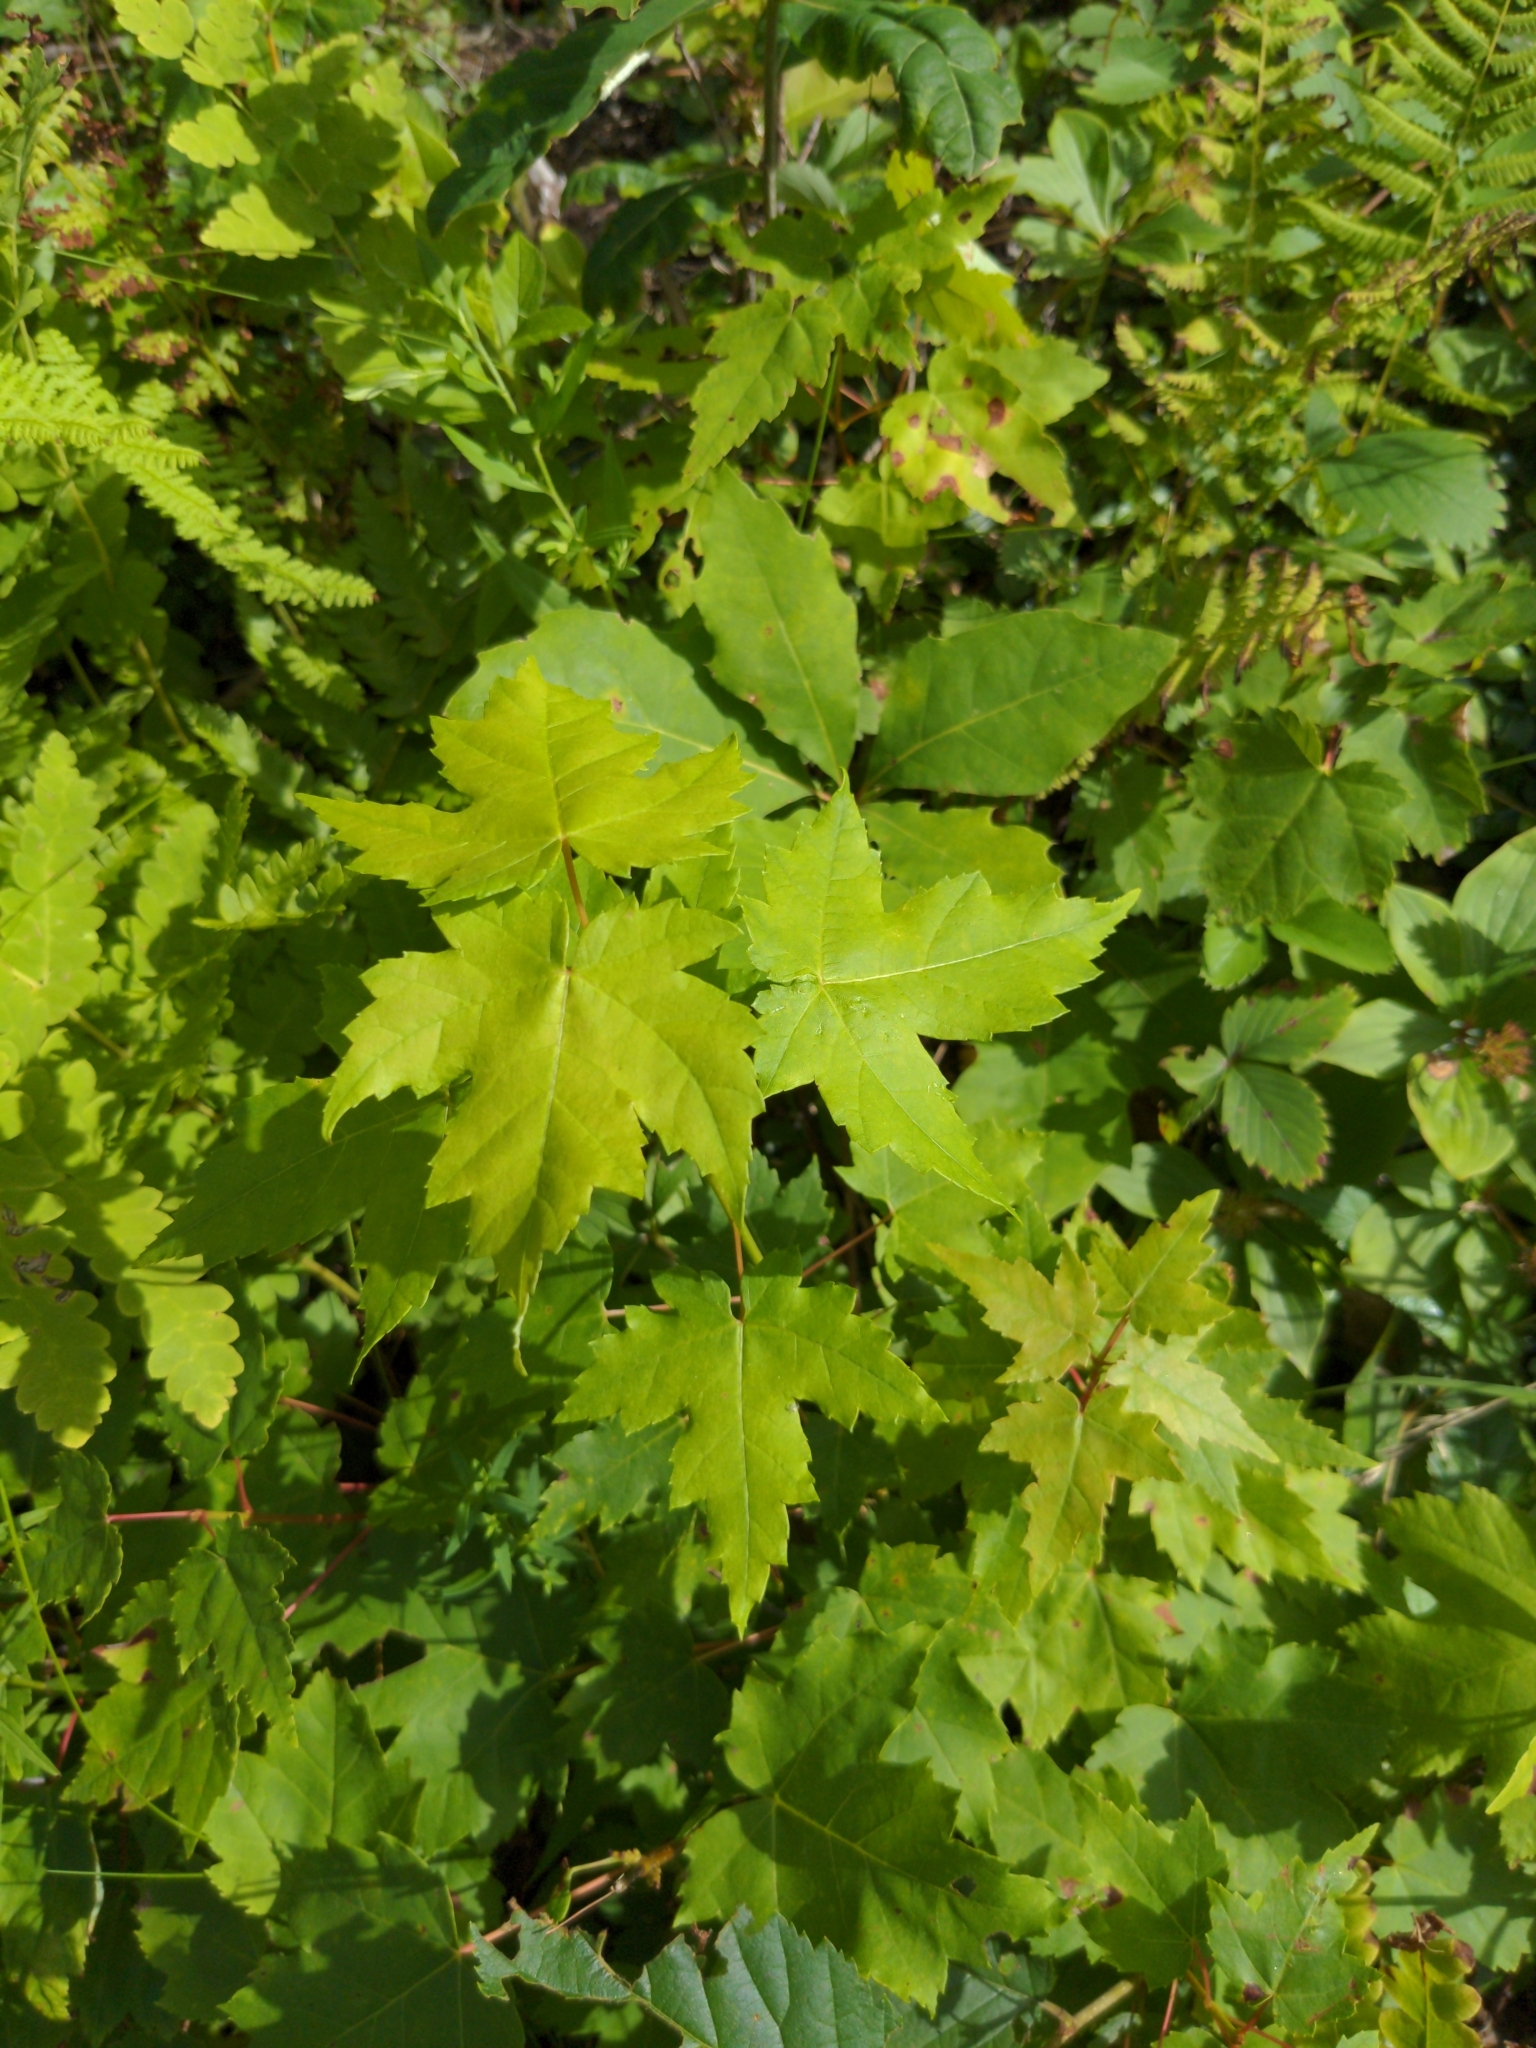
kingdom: Plantae
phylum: Tracheophyta
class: Magnoliopsida
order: Sapindales
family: Sapindaceae
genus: Acer
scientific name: Acer rubrum
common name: Red maple
